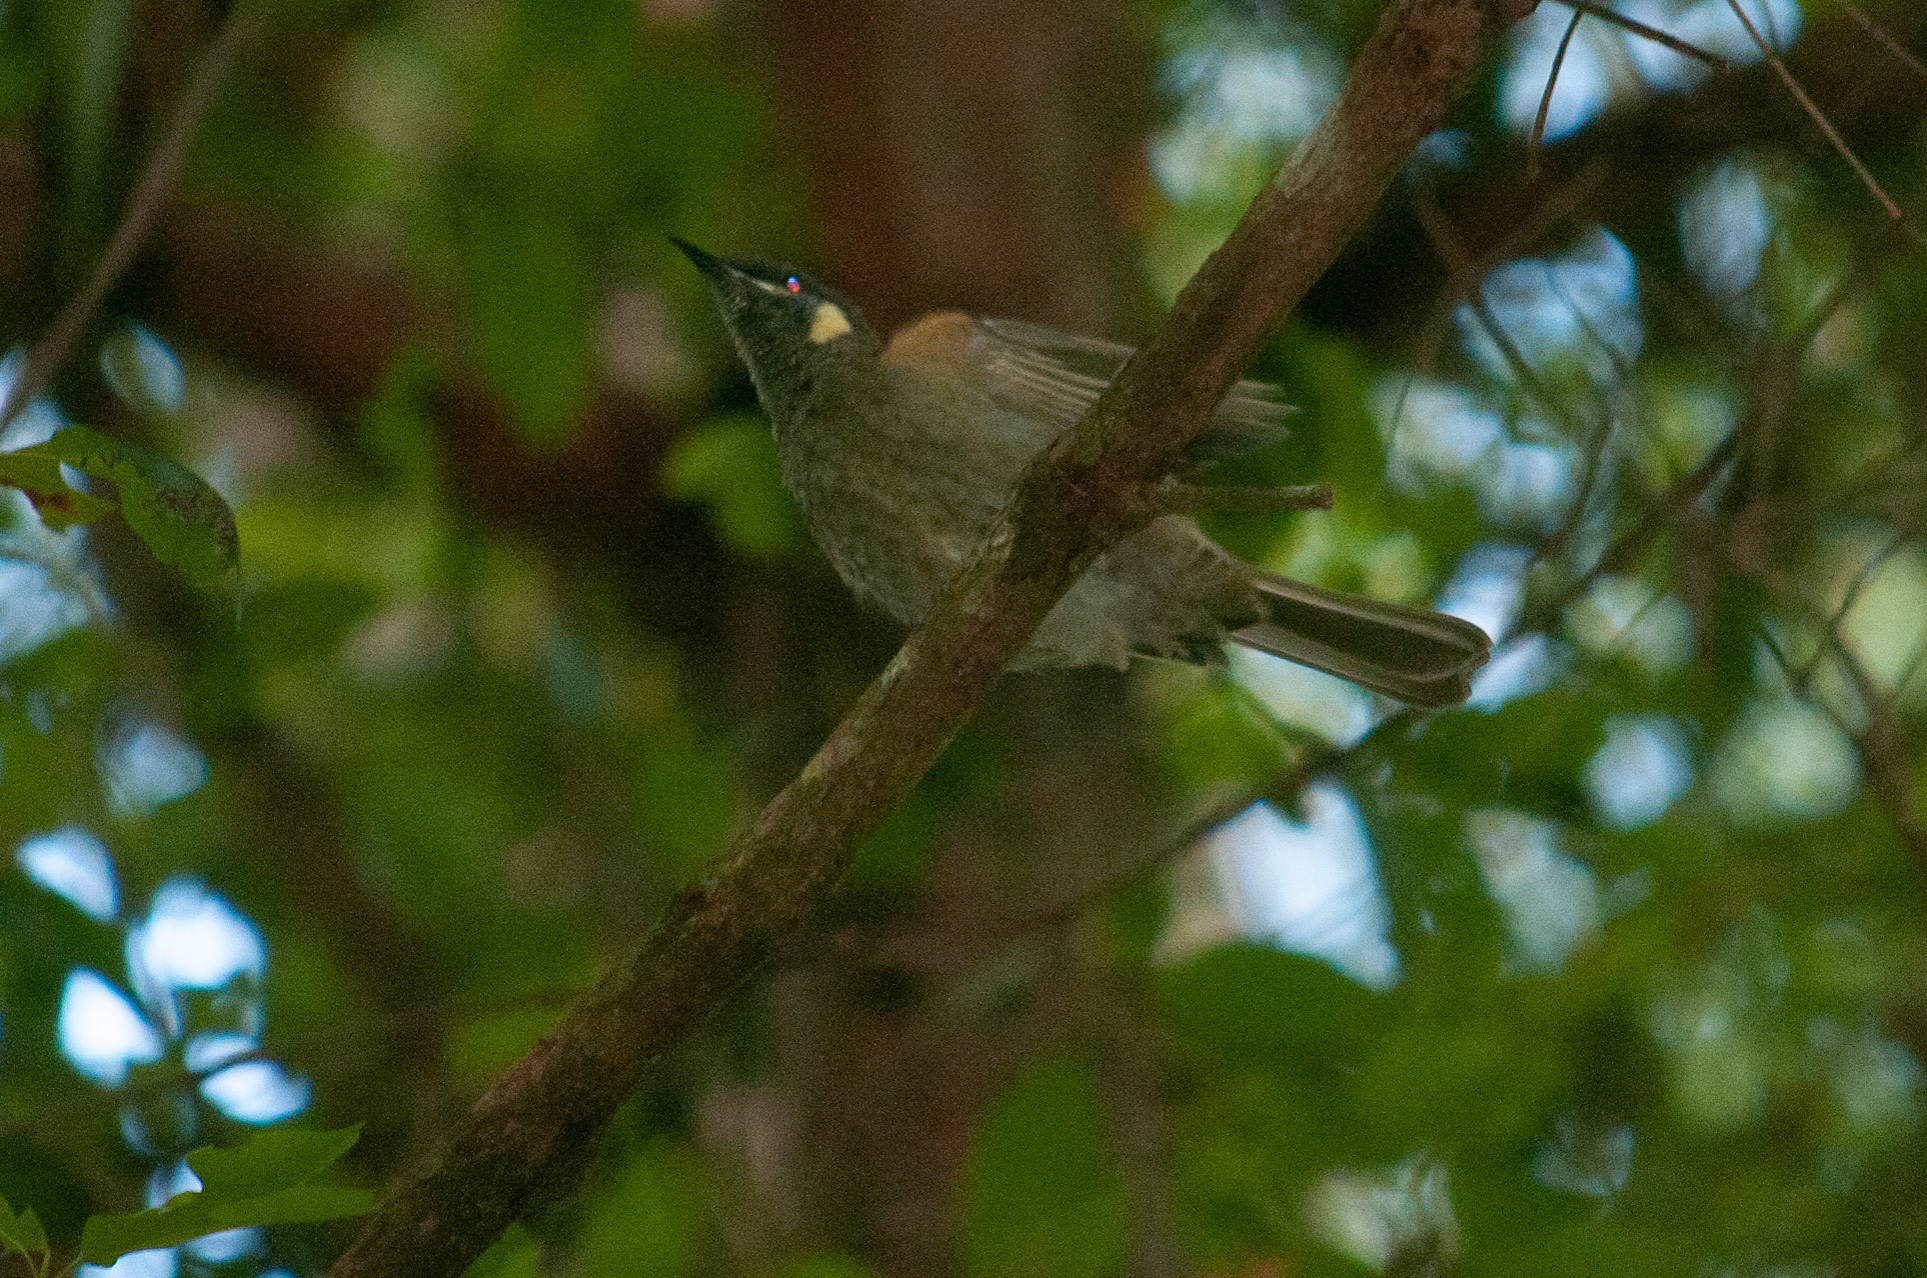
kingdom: Animalia
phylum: Chordata
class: Aves
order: Passeriformes
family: Meliphagidae
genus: Meliphaga
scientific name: Meliphaga lewinii
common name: Lewin's honeyeater
